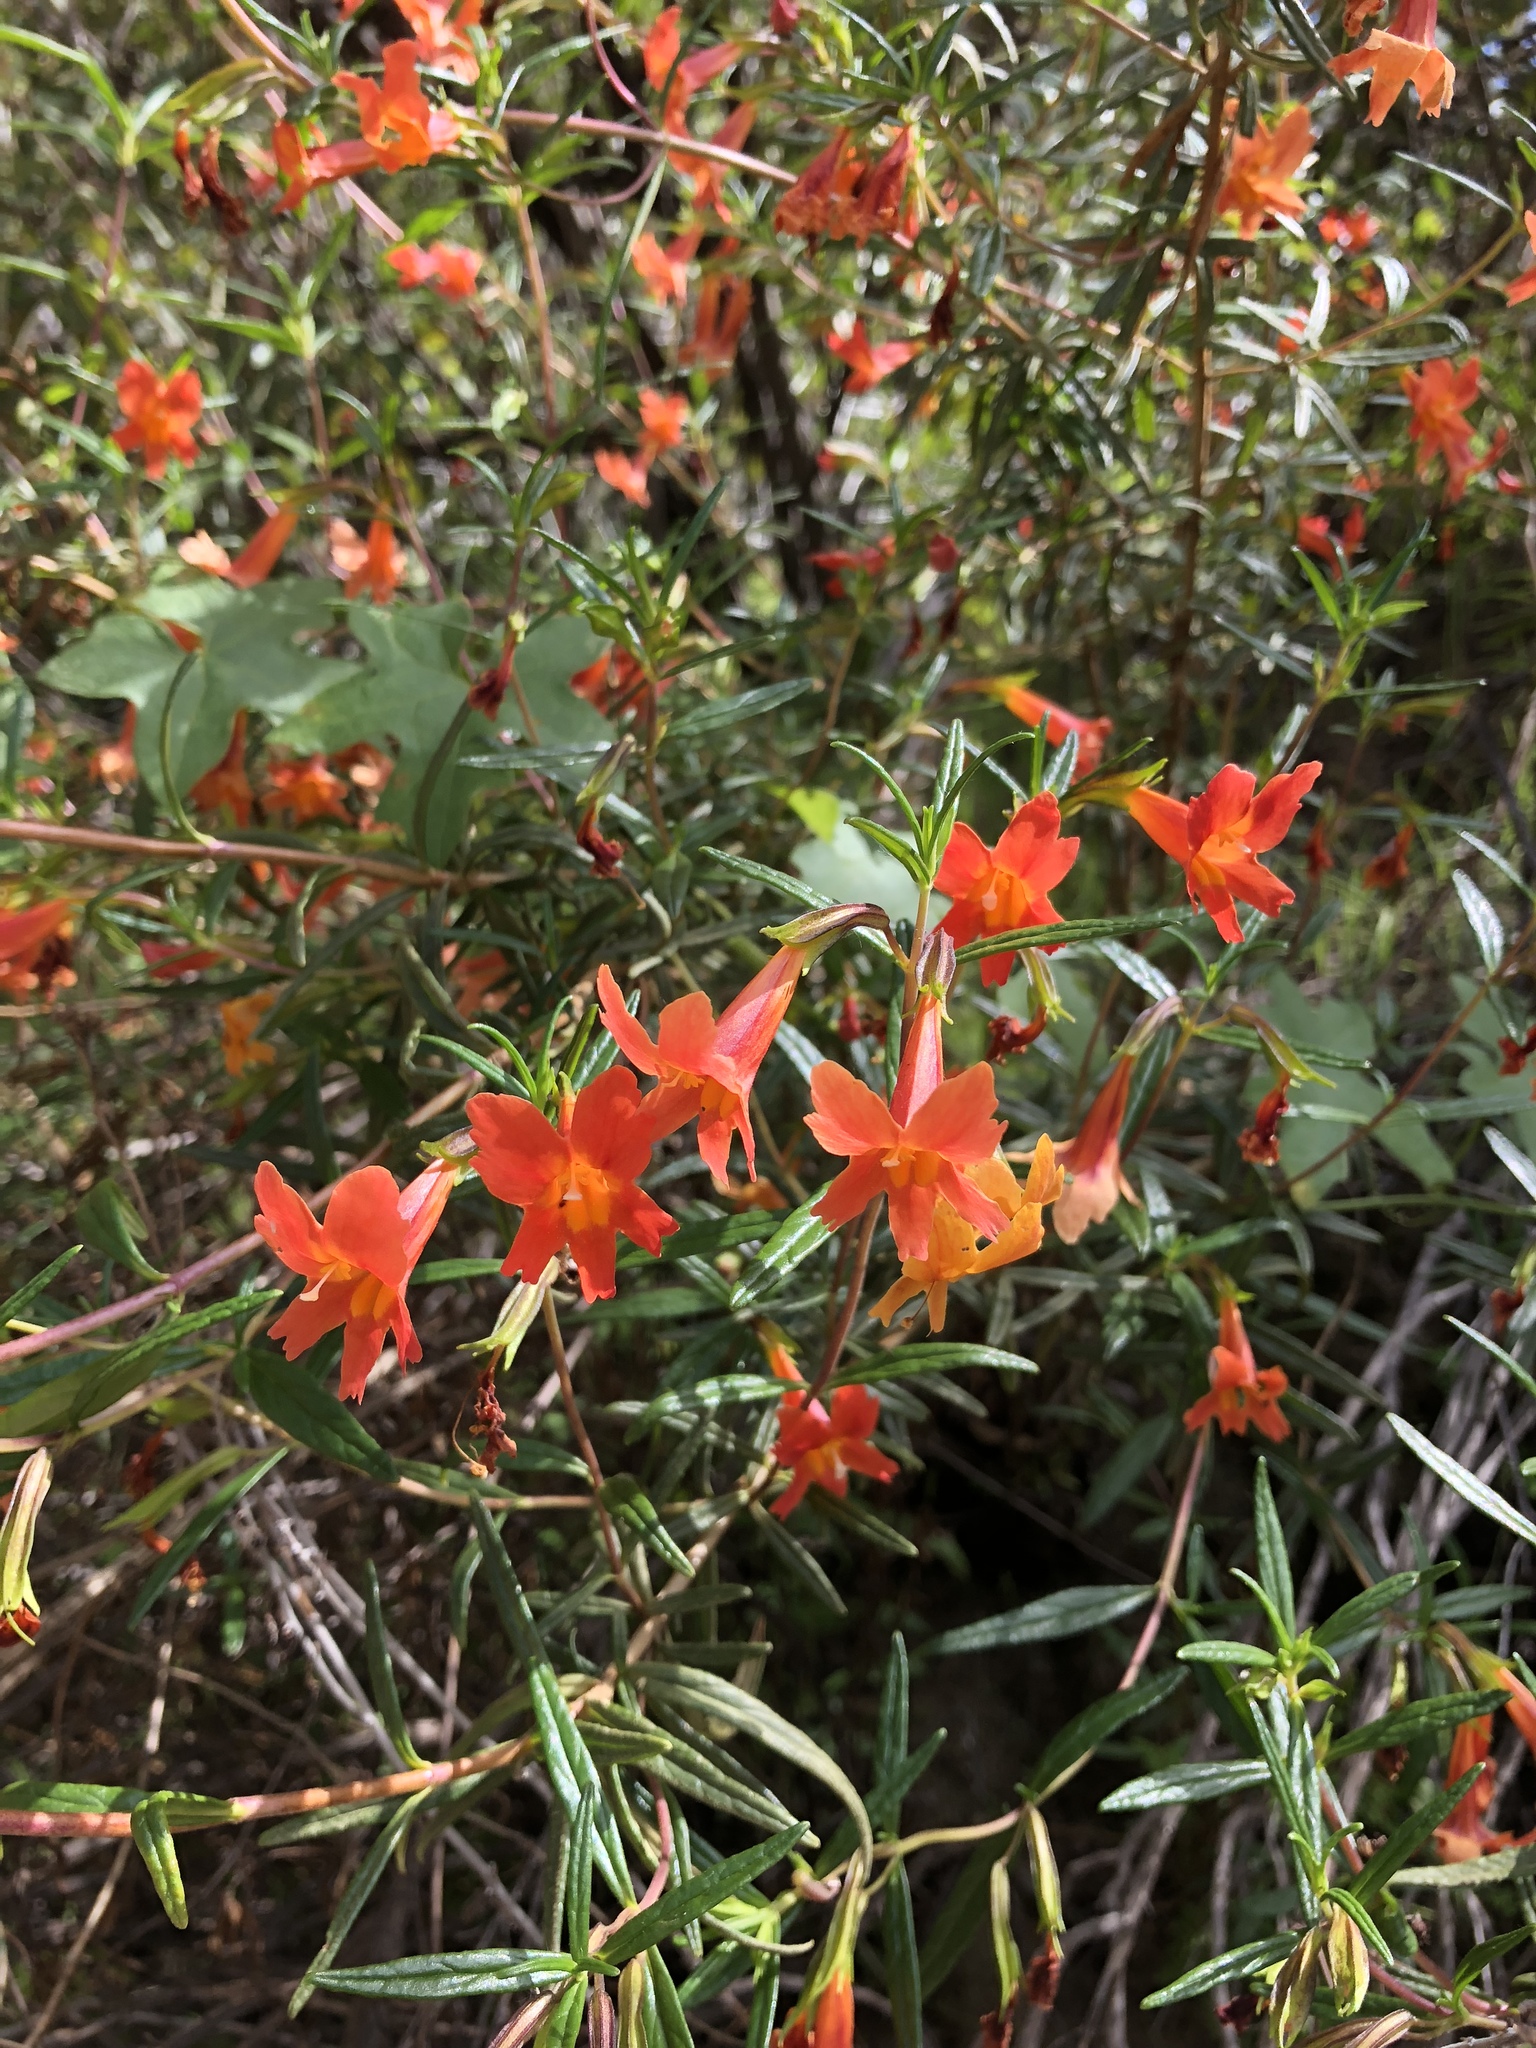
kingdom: Plantae
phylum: Tracheophyta
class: Magnoliopsida
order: Lamiales
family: Phrymaceae
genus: Diplacus
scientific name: Diplacus puniceus
